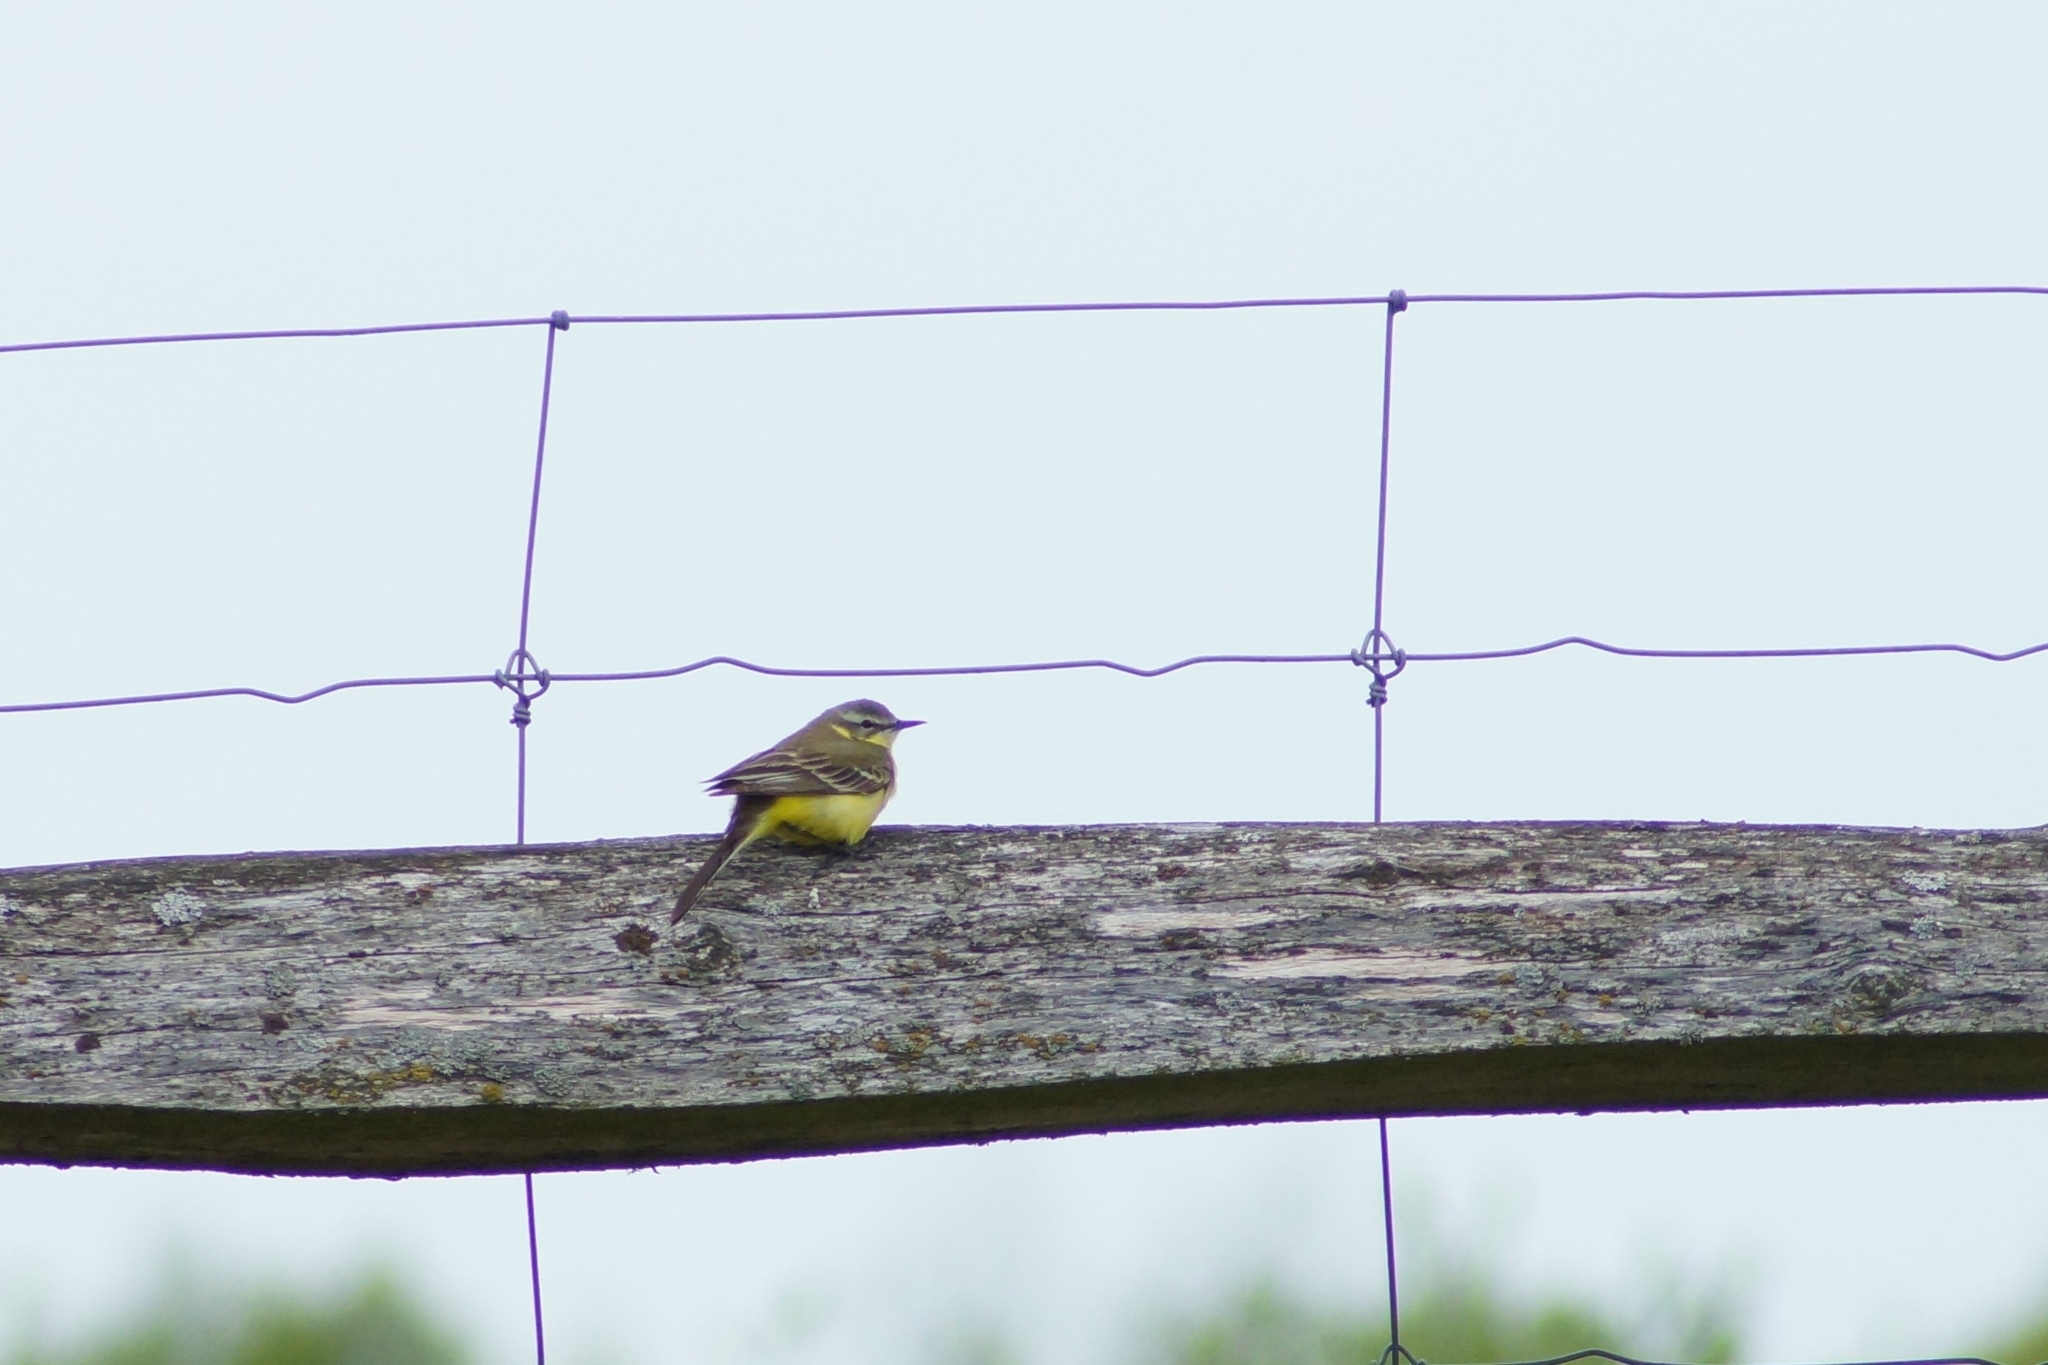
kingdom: Animalia
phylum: Chordata
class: Aves
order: Passeriformes
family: Motacillidae
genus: Motacilla
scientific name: Motacilla flava
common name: Western yellow wagtail
